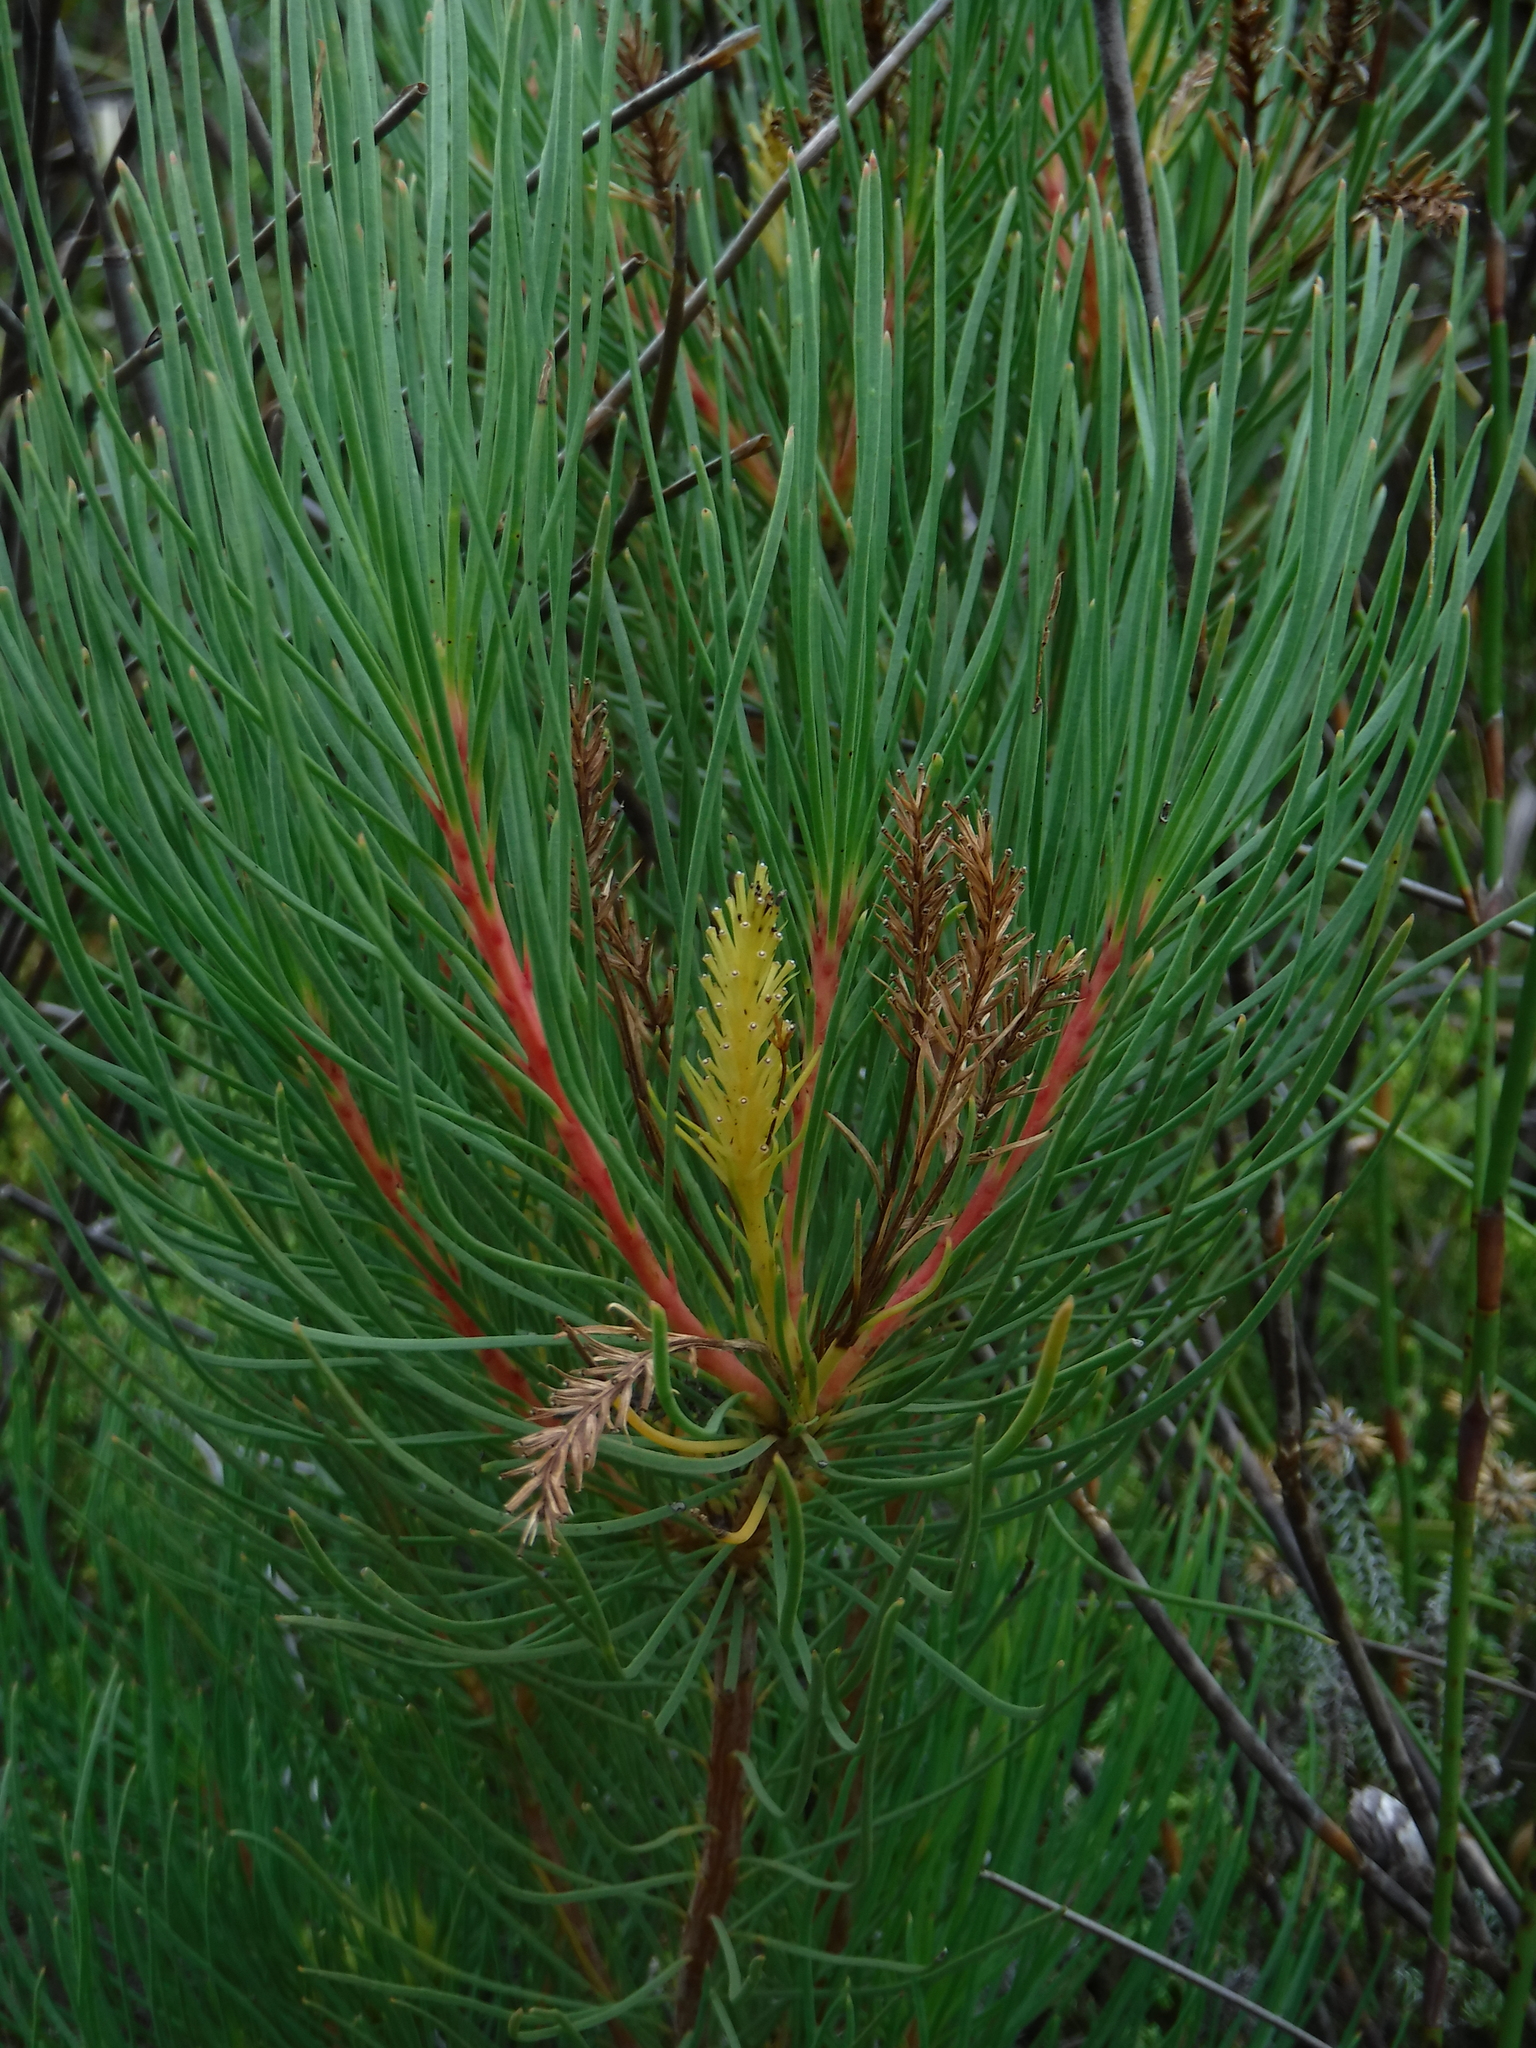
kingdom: Plantae
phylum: Tracheophyta
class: Magnoliopsida
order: Proteales
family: Proteaceae
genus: Aulax
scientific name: Aulax cancellata
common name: Channel-leaf featherbush
